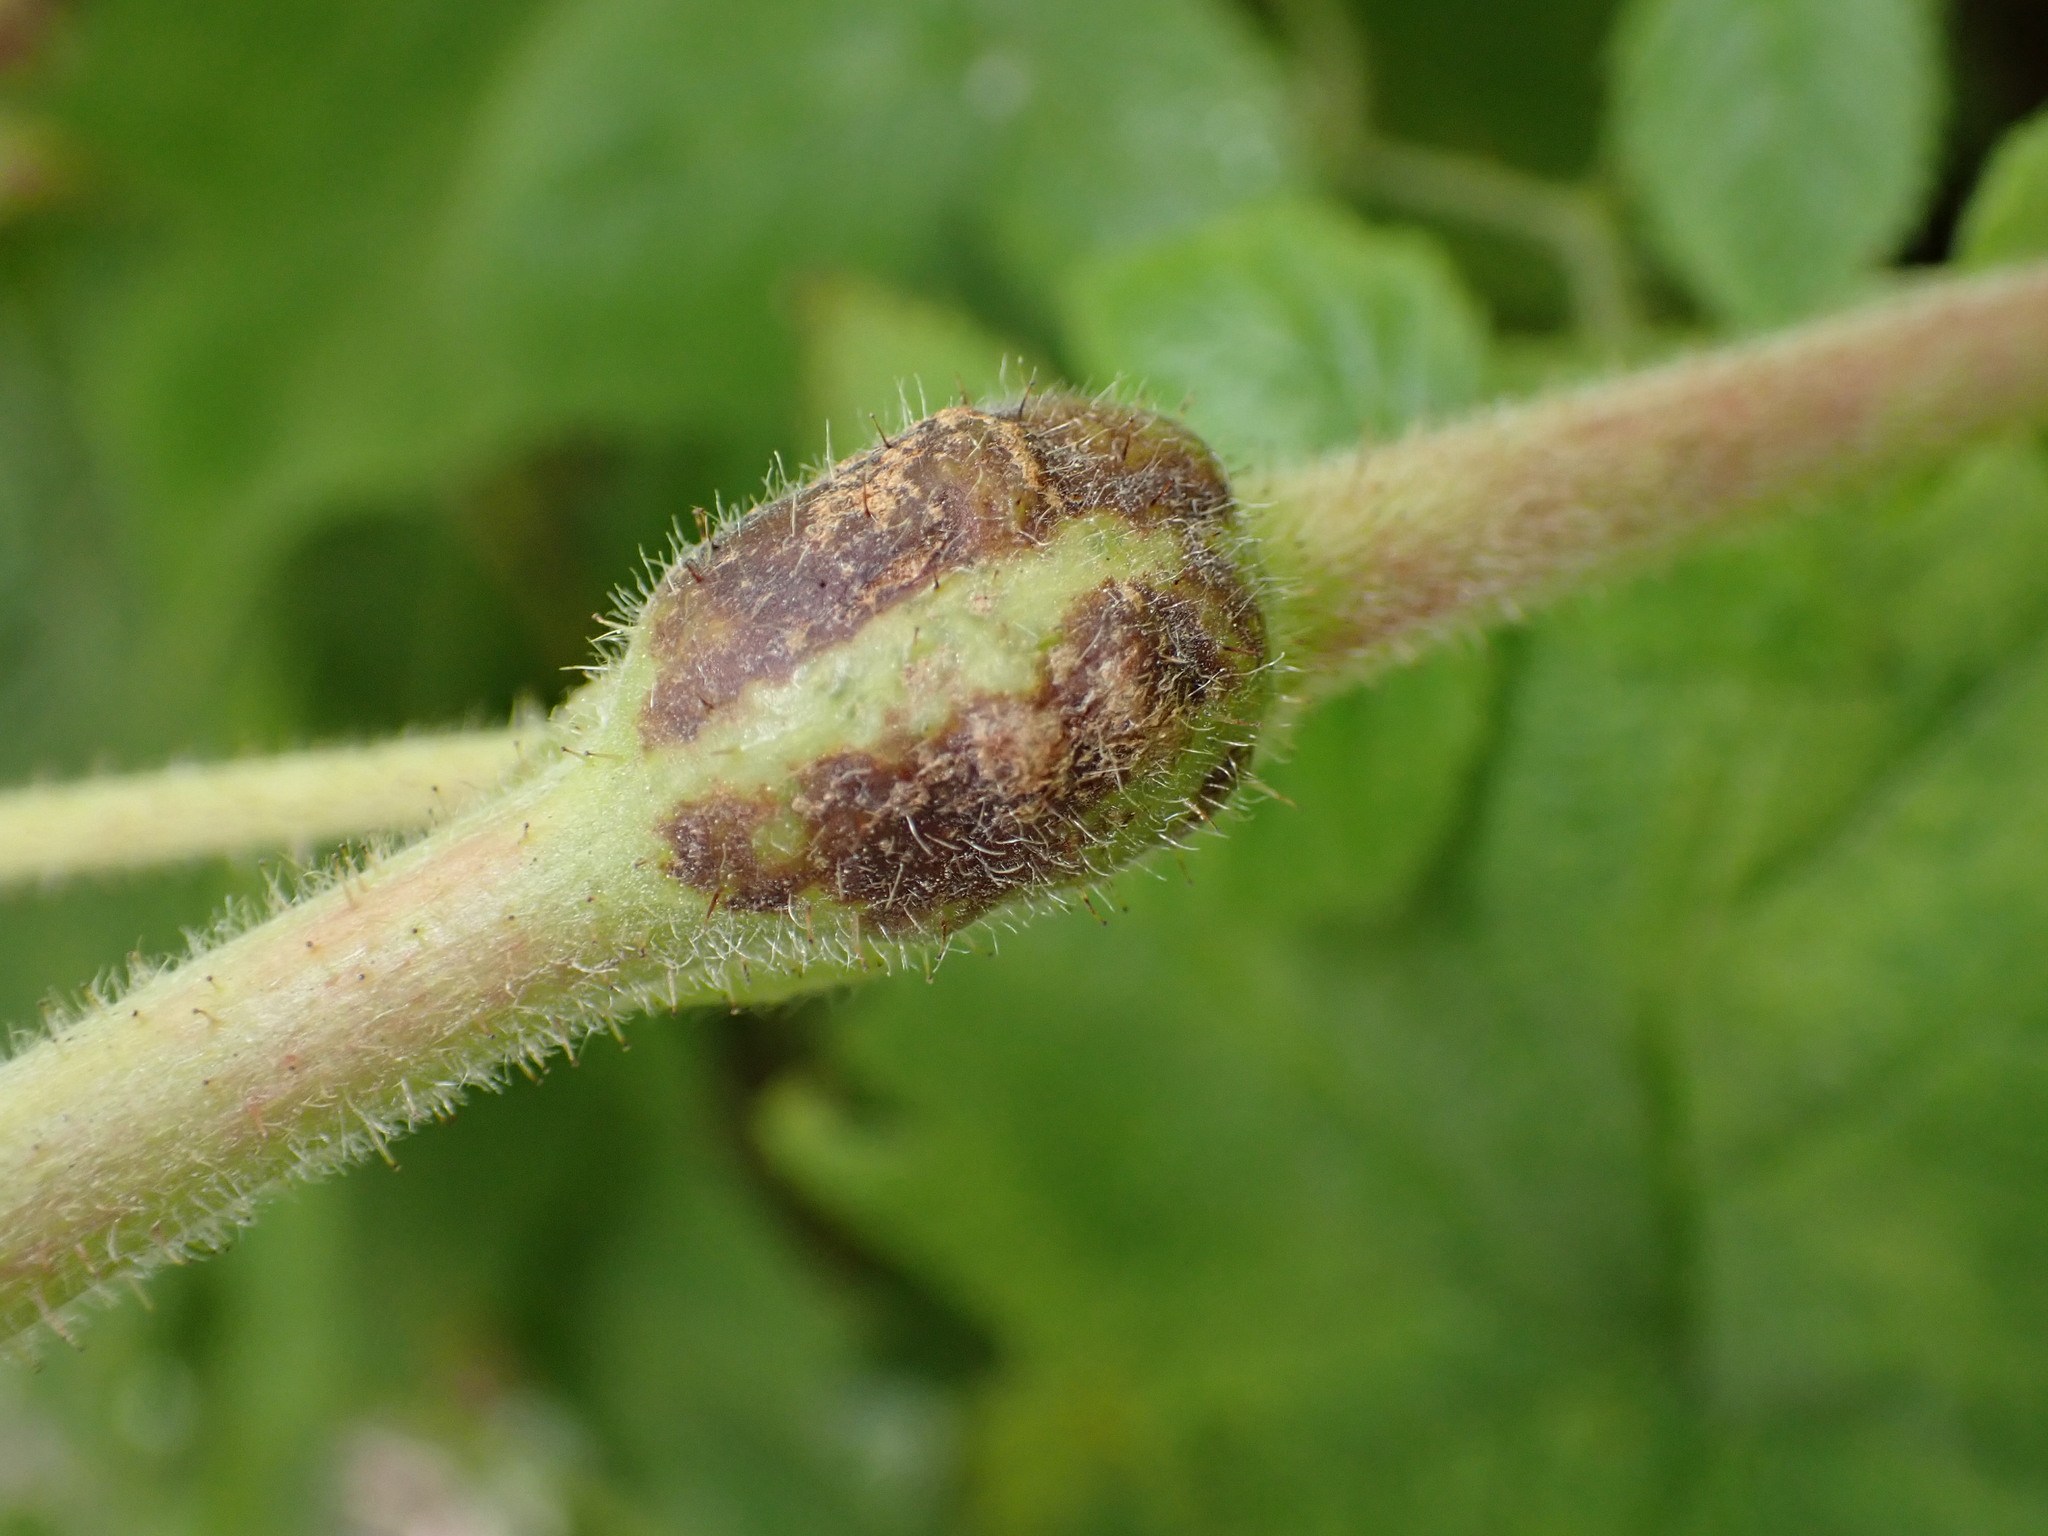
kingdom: Animalia
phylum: Arthropoda
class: Insecta
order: Hymenoptera
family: Cynipidae
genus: Diastrophus
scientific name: Diastrophus
